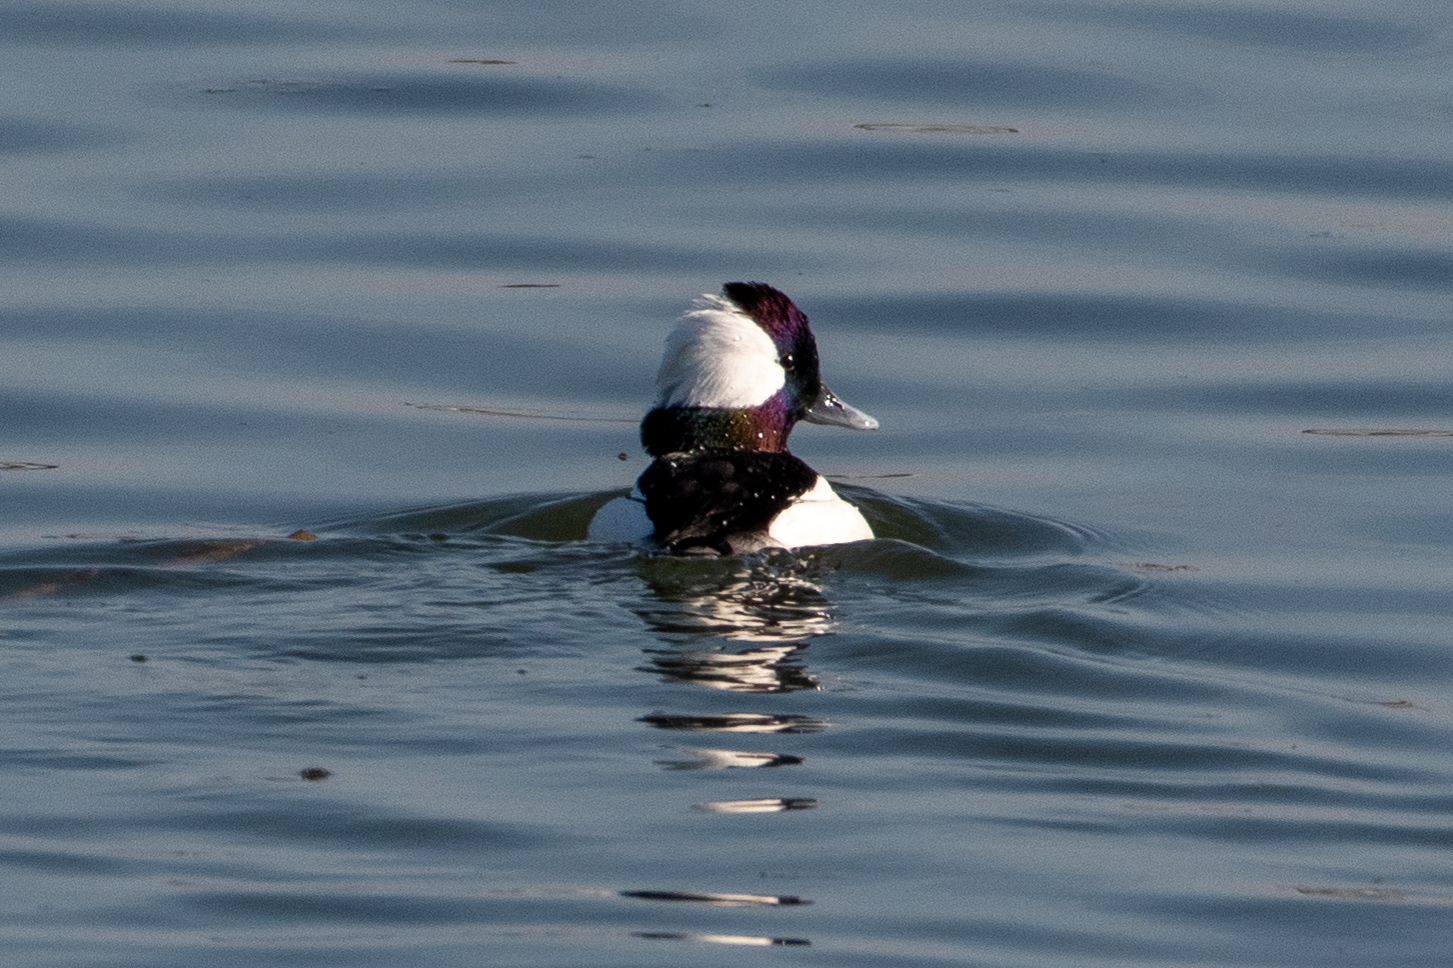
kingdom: Animalia
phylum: Chordata
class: Aves
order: Anseriformes
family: Anatidae
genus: Bucephala
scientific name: Bucephala albeola
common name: Bufflehead
